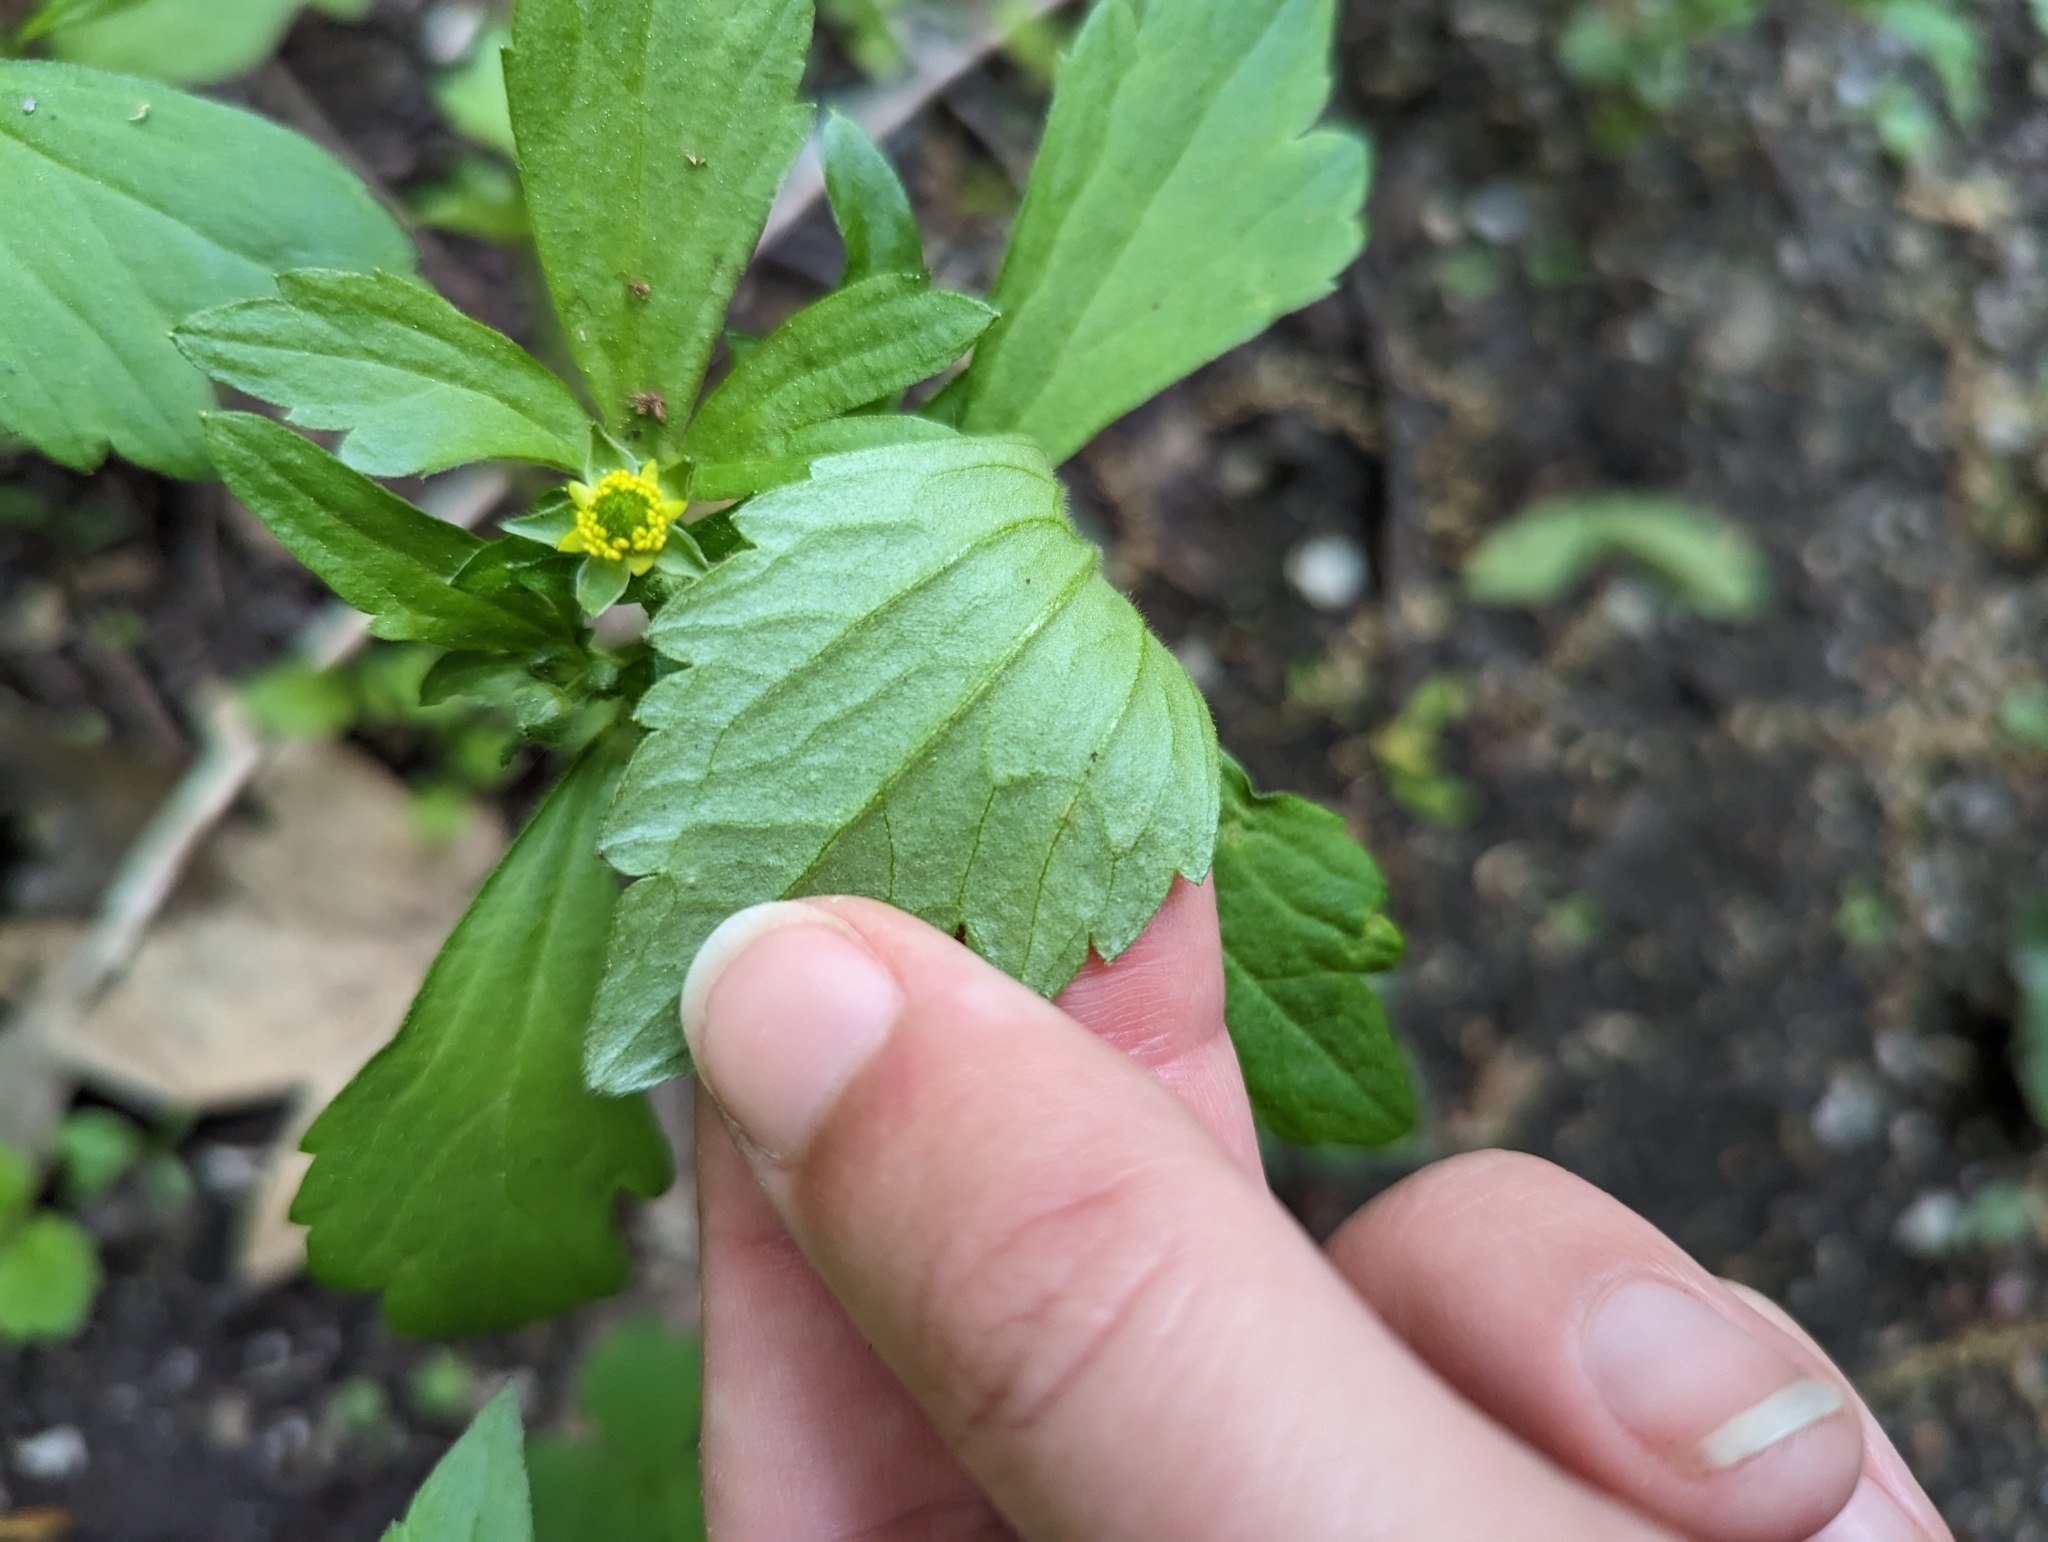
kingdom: Plantae
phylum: Tracheophyta
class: Magnoliopsida
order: Ranunculales
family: Ranunculaceae
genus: Ranunculus
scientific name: Ranunculus recurvatus
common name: Blisterwort
